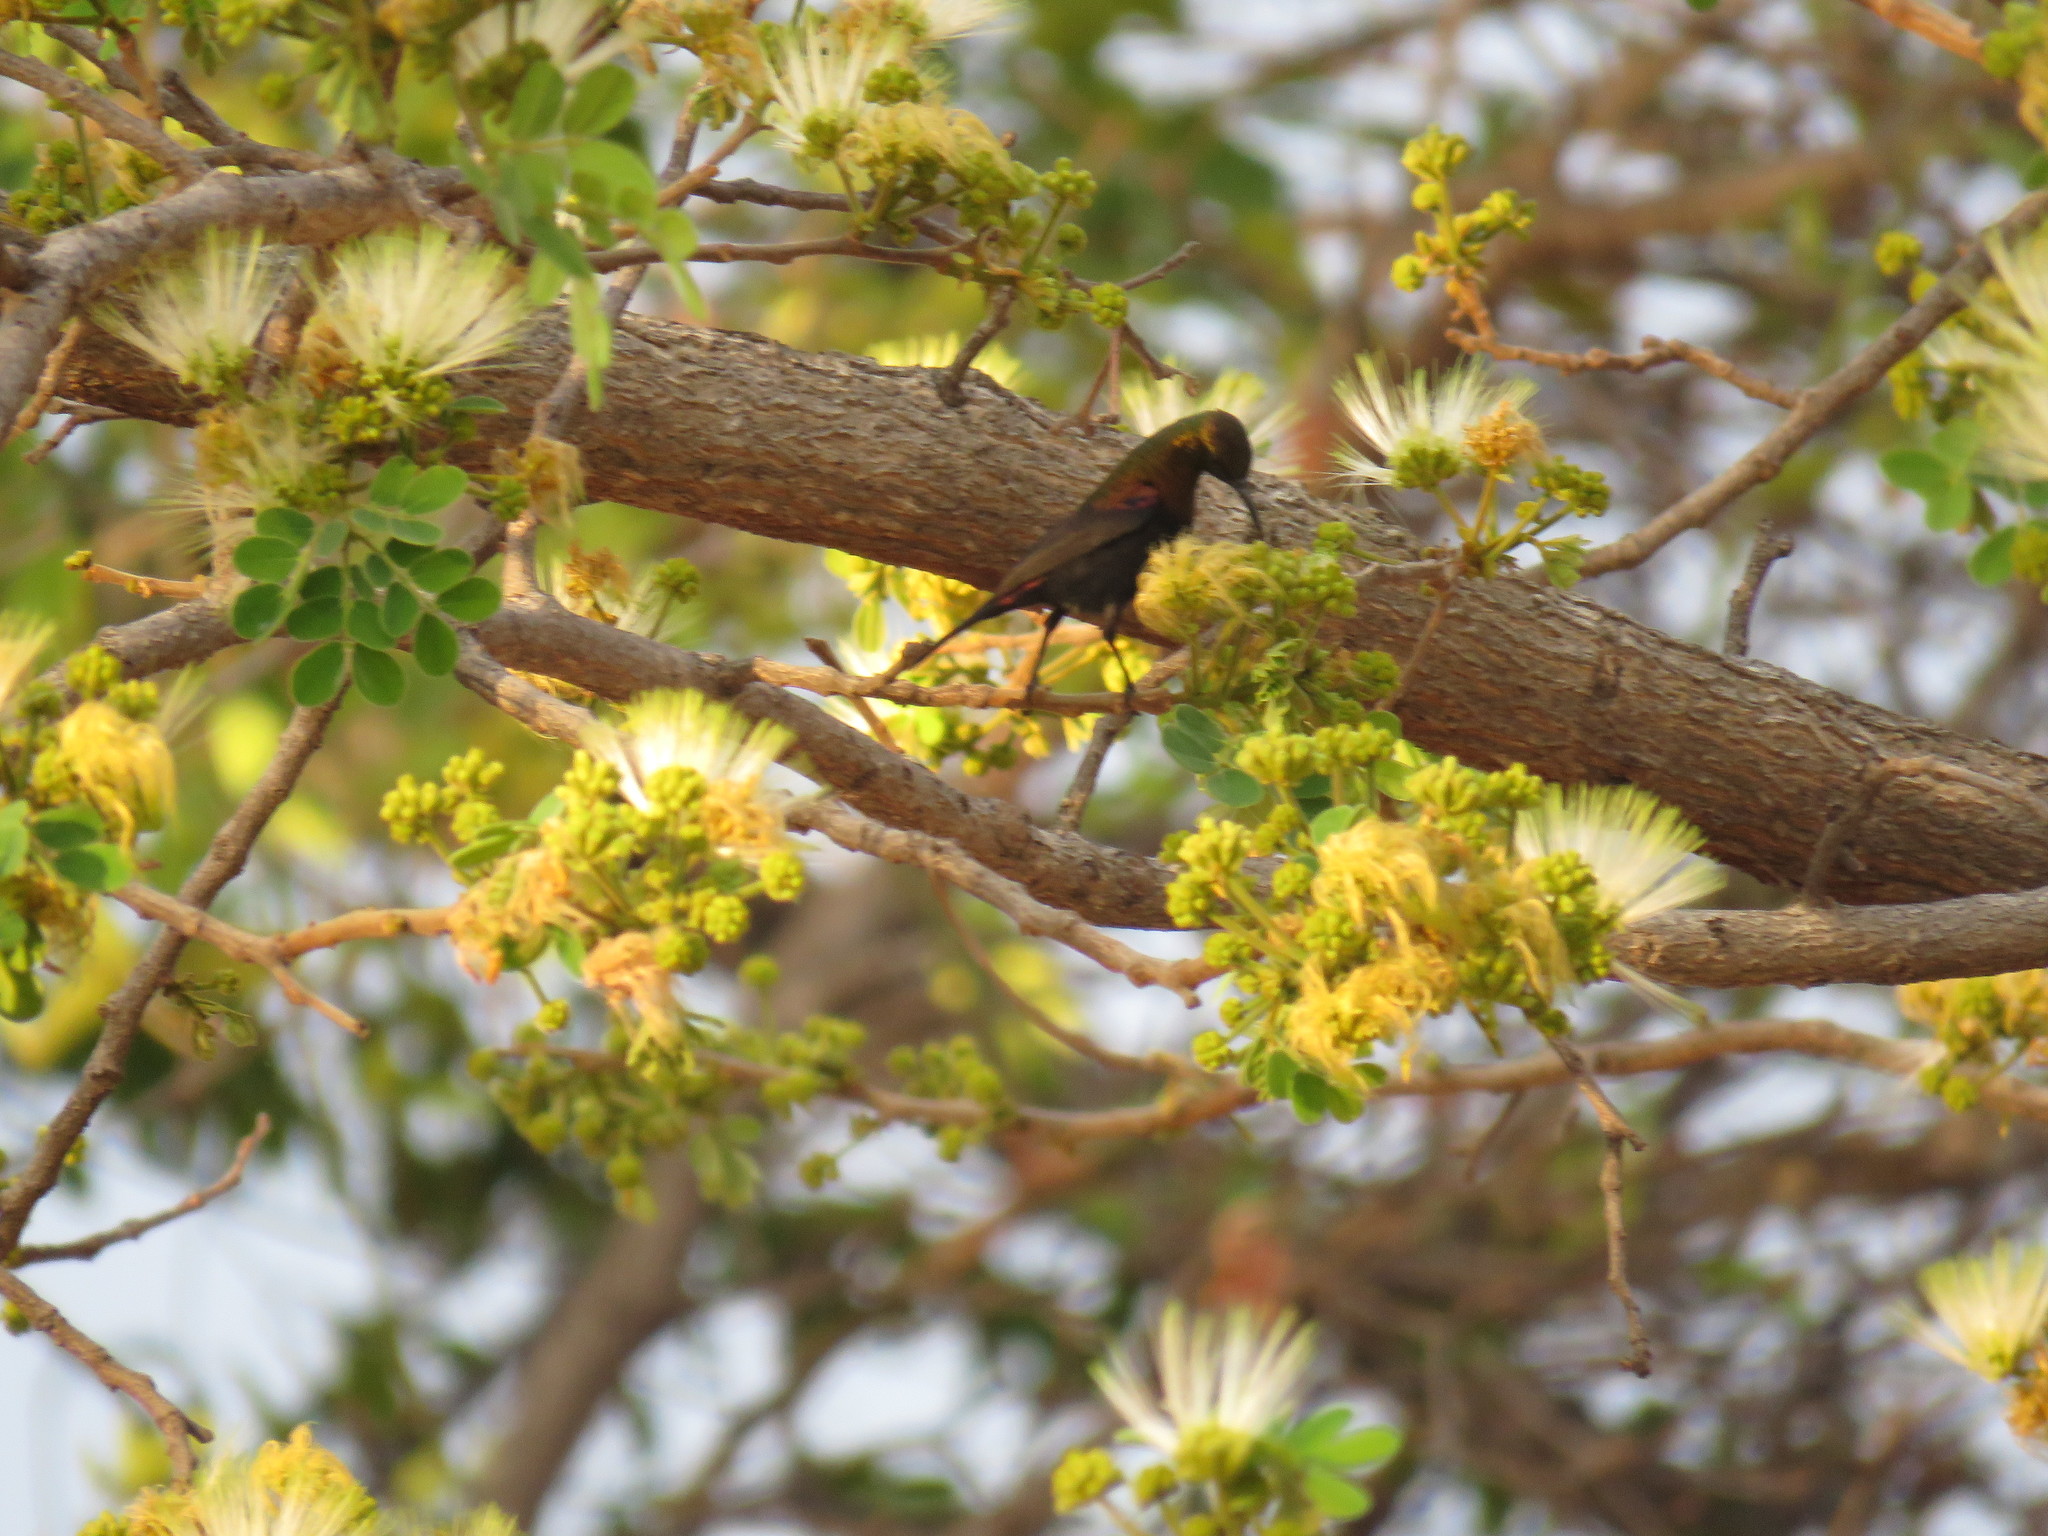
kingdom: Animalia
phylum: Chordata
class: Aves
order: Passeriformes
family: Nectariniidae
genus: Cinnyris
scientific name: Cinnyris cupreus
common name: Copper sunbird
